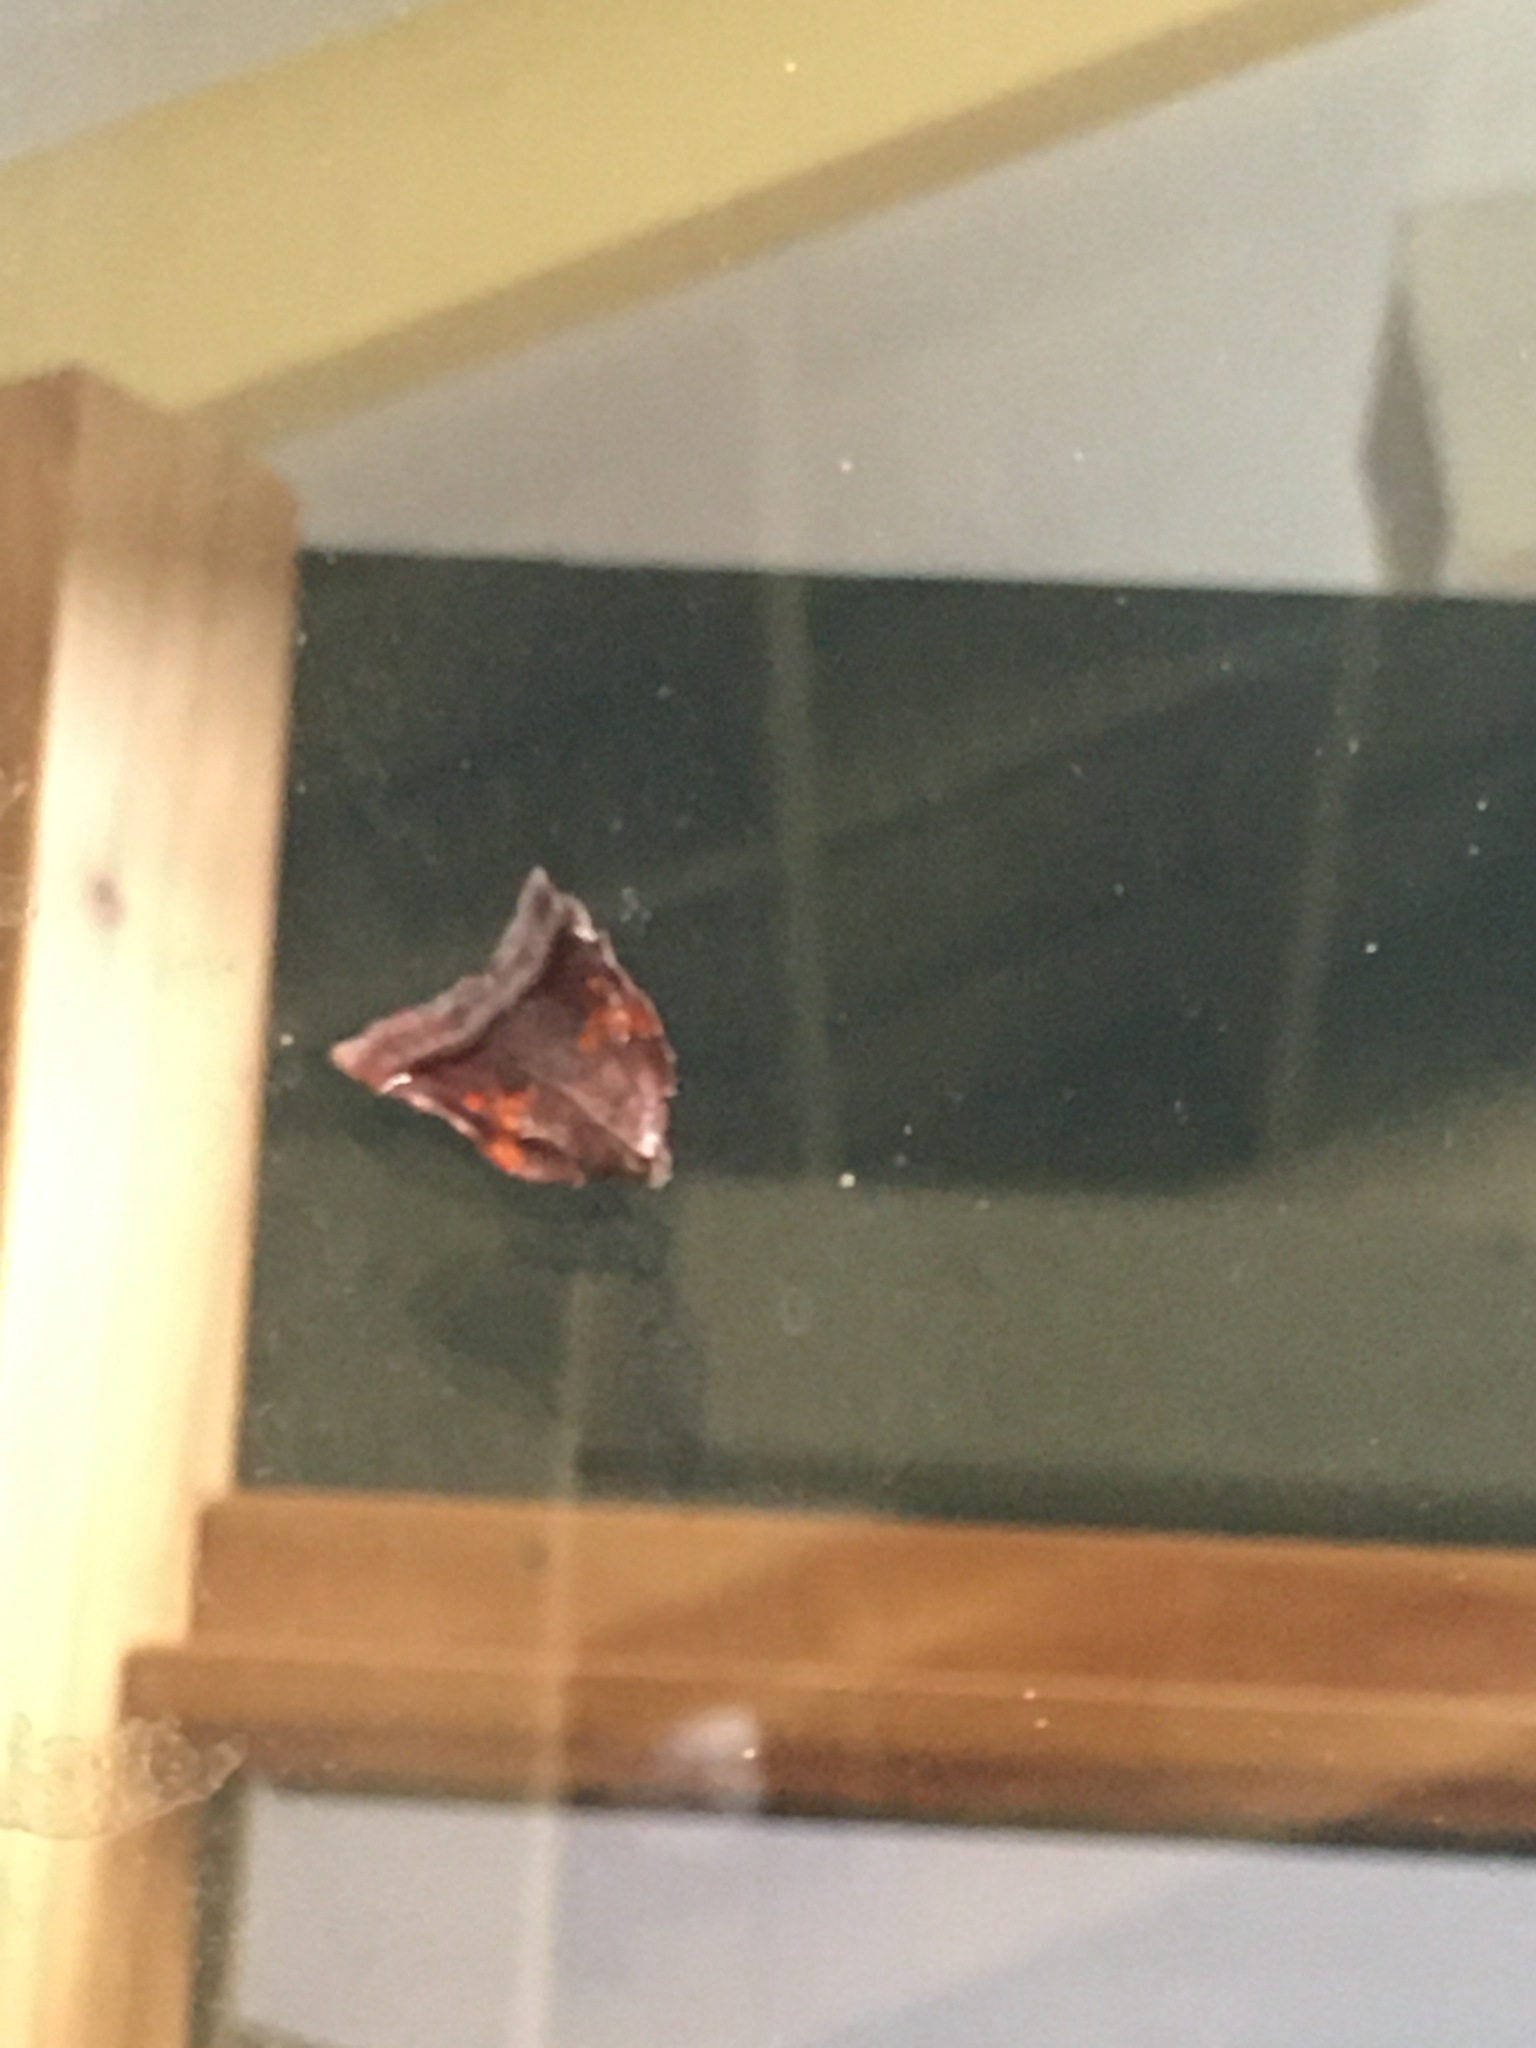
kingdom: Animalia
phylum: Arthropoda
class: Insecta
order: Lepidoptera
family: Pyralidae
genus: Clydonopteron
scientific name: Clydonopteron sacculana
